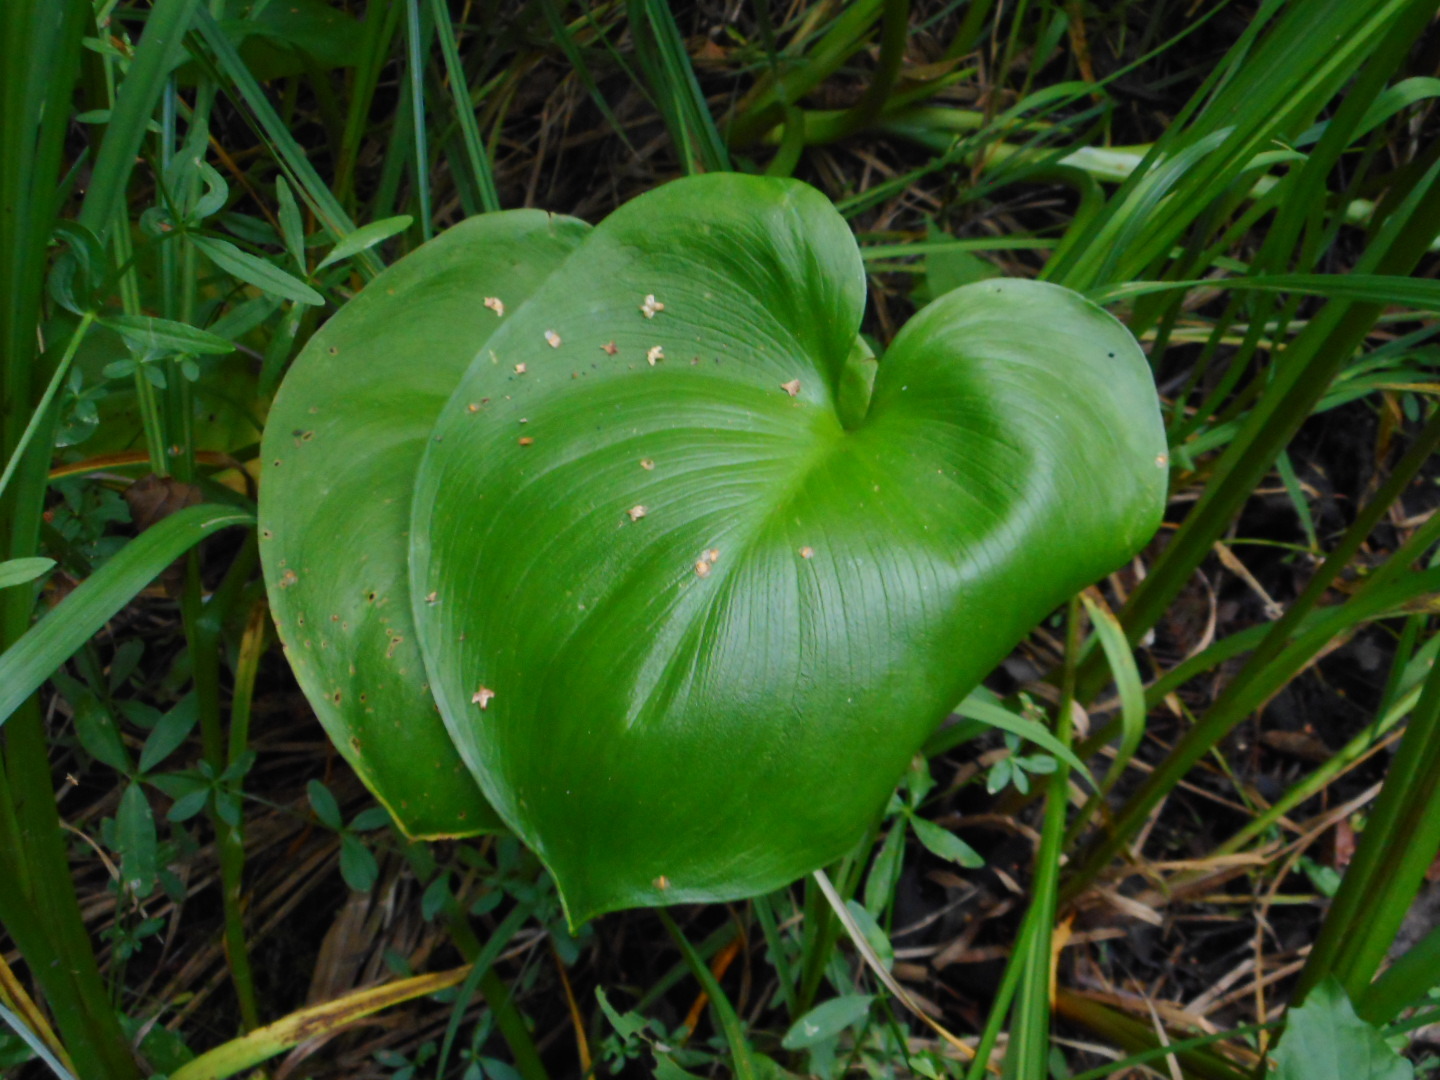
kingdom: Plantae
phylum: Tracheophyta
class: Liliopsida
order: Alismatales
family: Araceae
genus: Calla
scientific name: Calla palustris
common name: Bog arum
